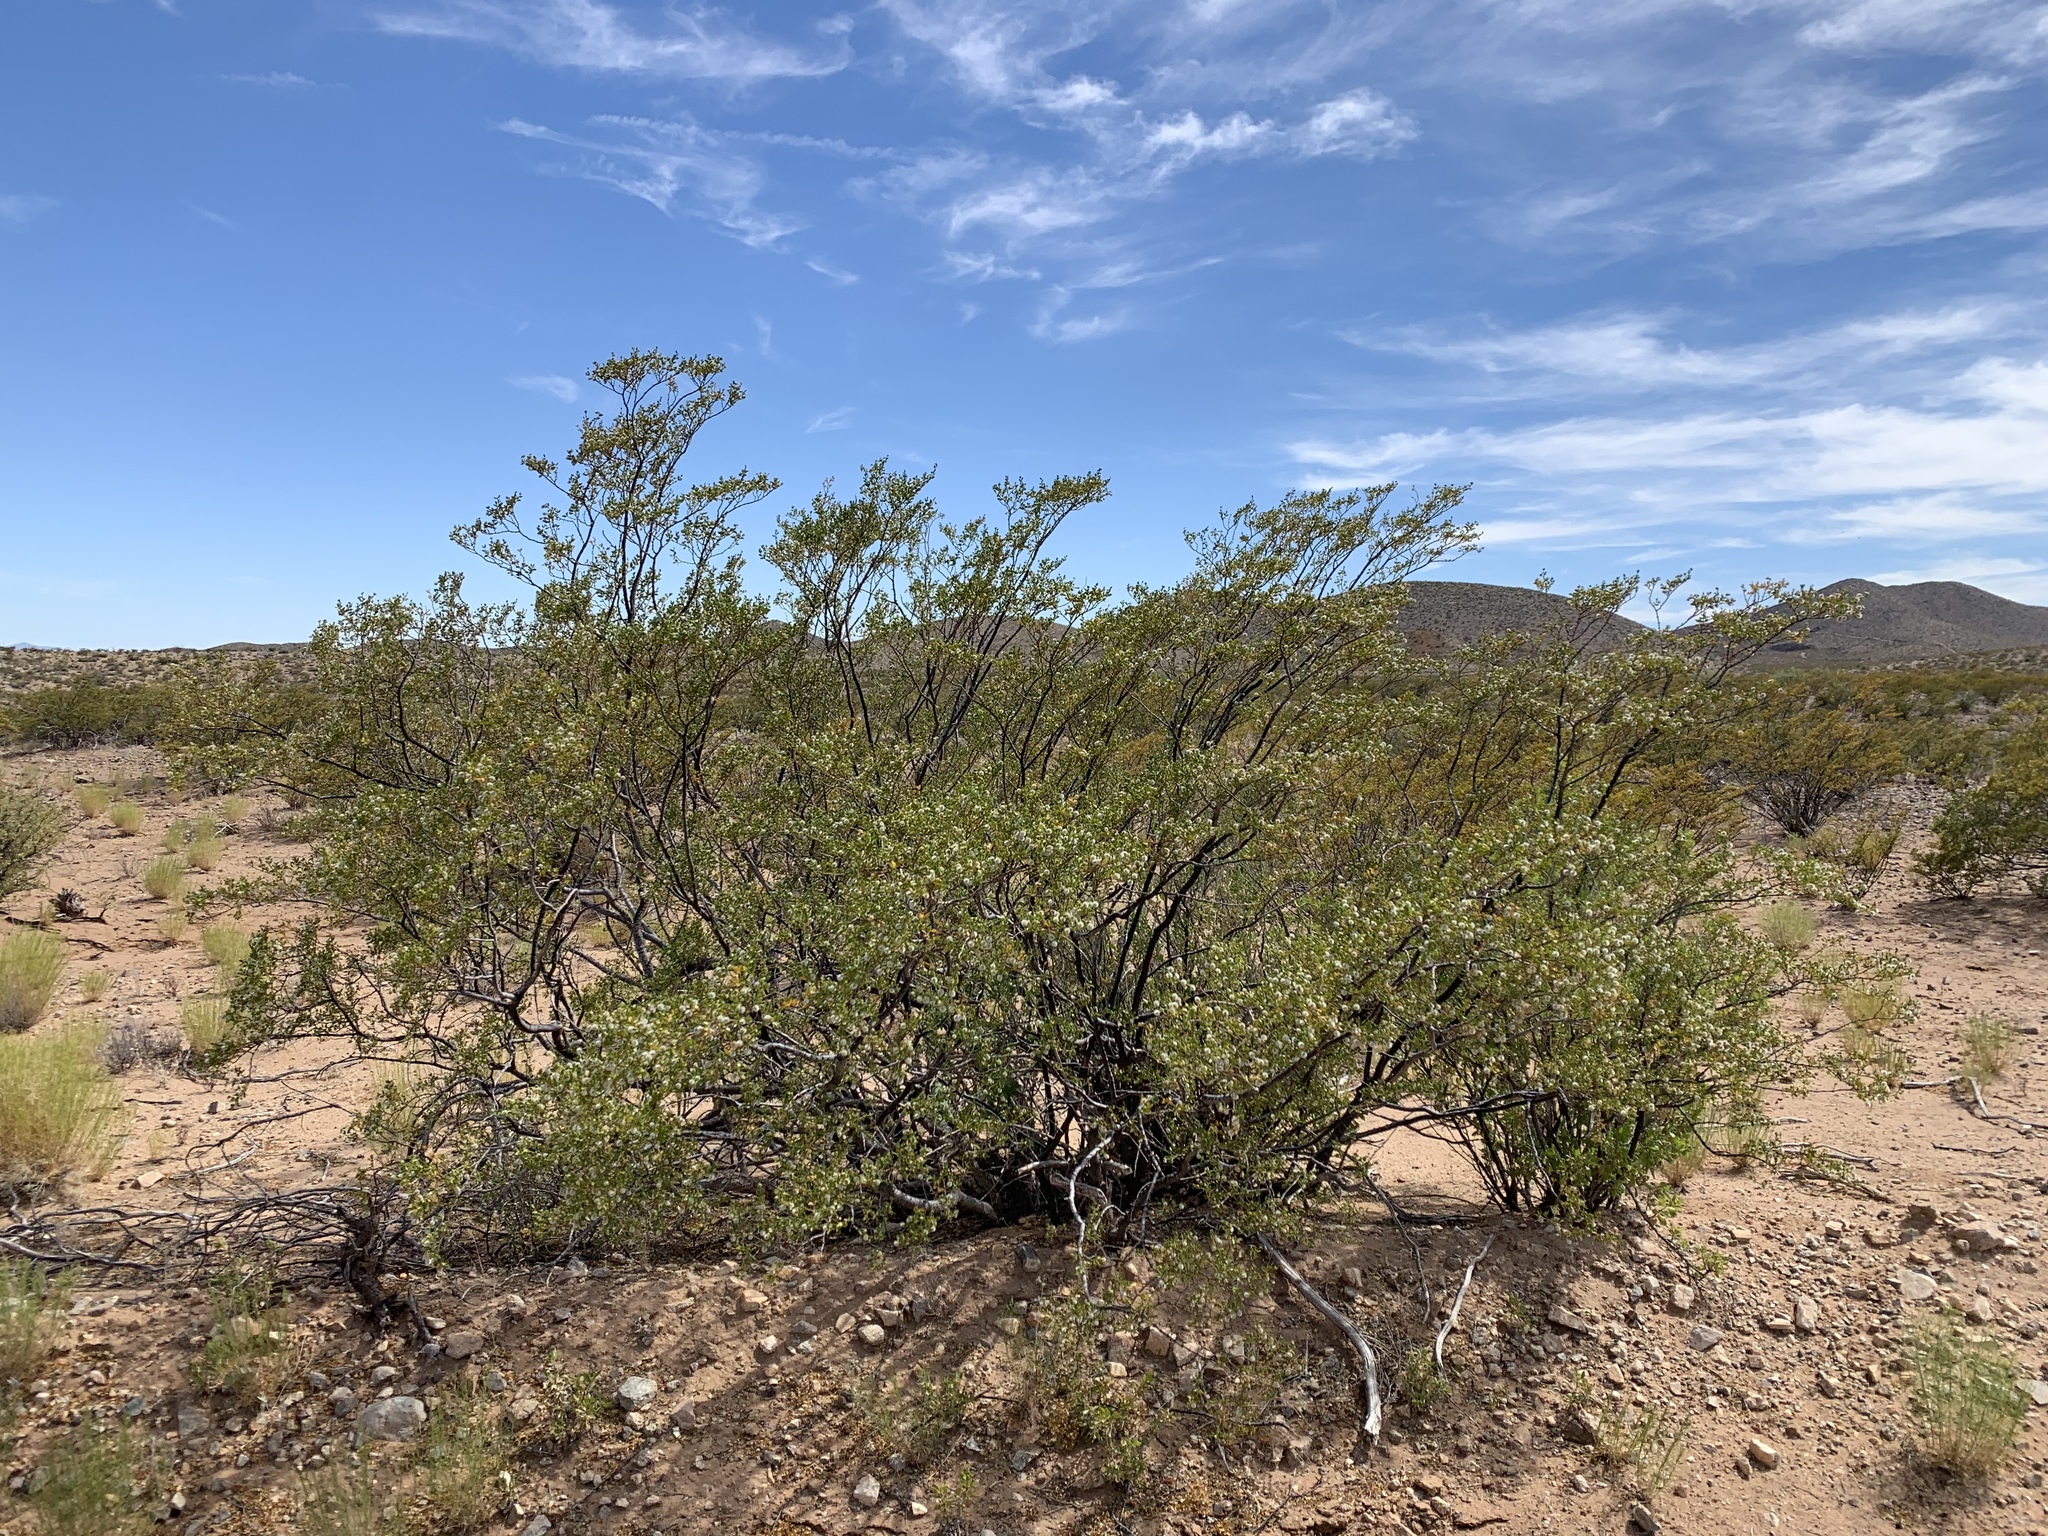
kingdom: Plantae
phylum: Tracheophyta
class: Magnoliopsida
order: Zygophyllales
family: Zygophyllaceae
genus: Larrea
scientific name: Larrea tridentata
